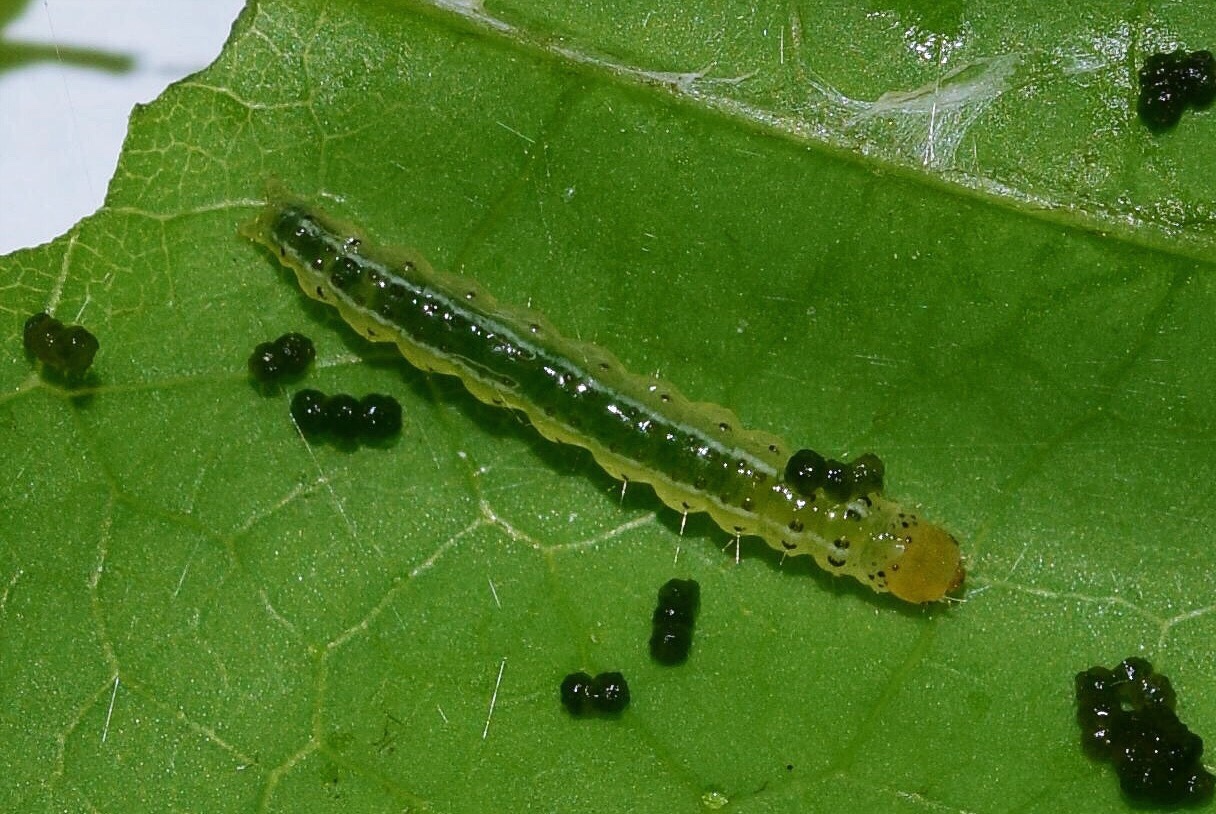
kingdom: Animalia
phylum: Arthropoda
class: Insecta
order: Lepidoptera
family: Crambidae
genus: Agathodes
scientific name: Agathodes musivalis
